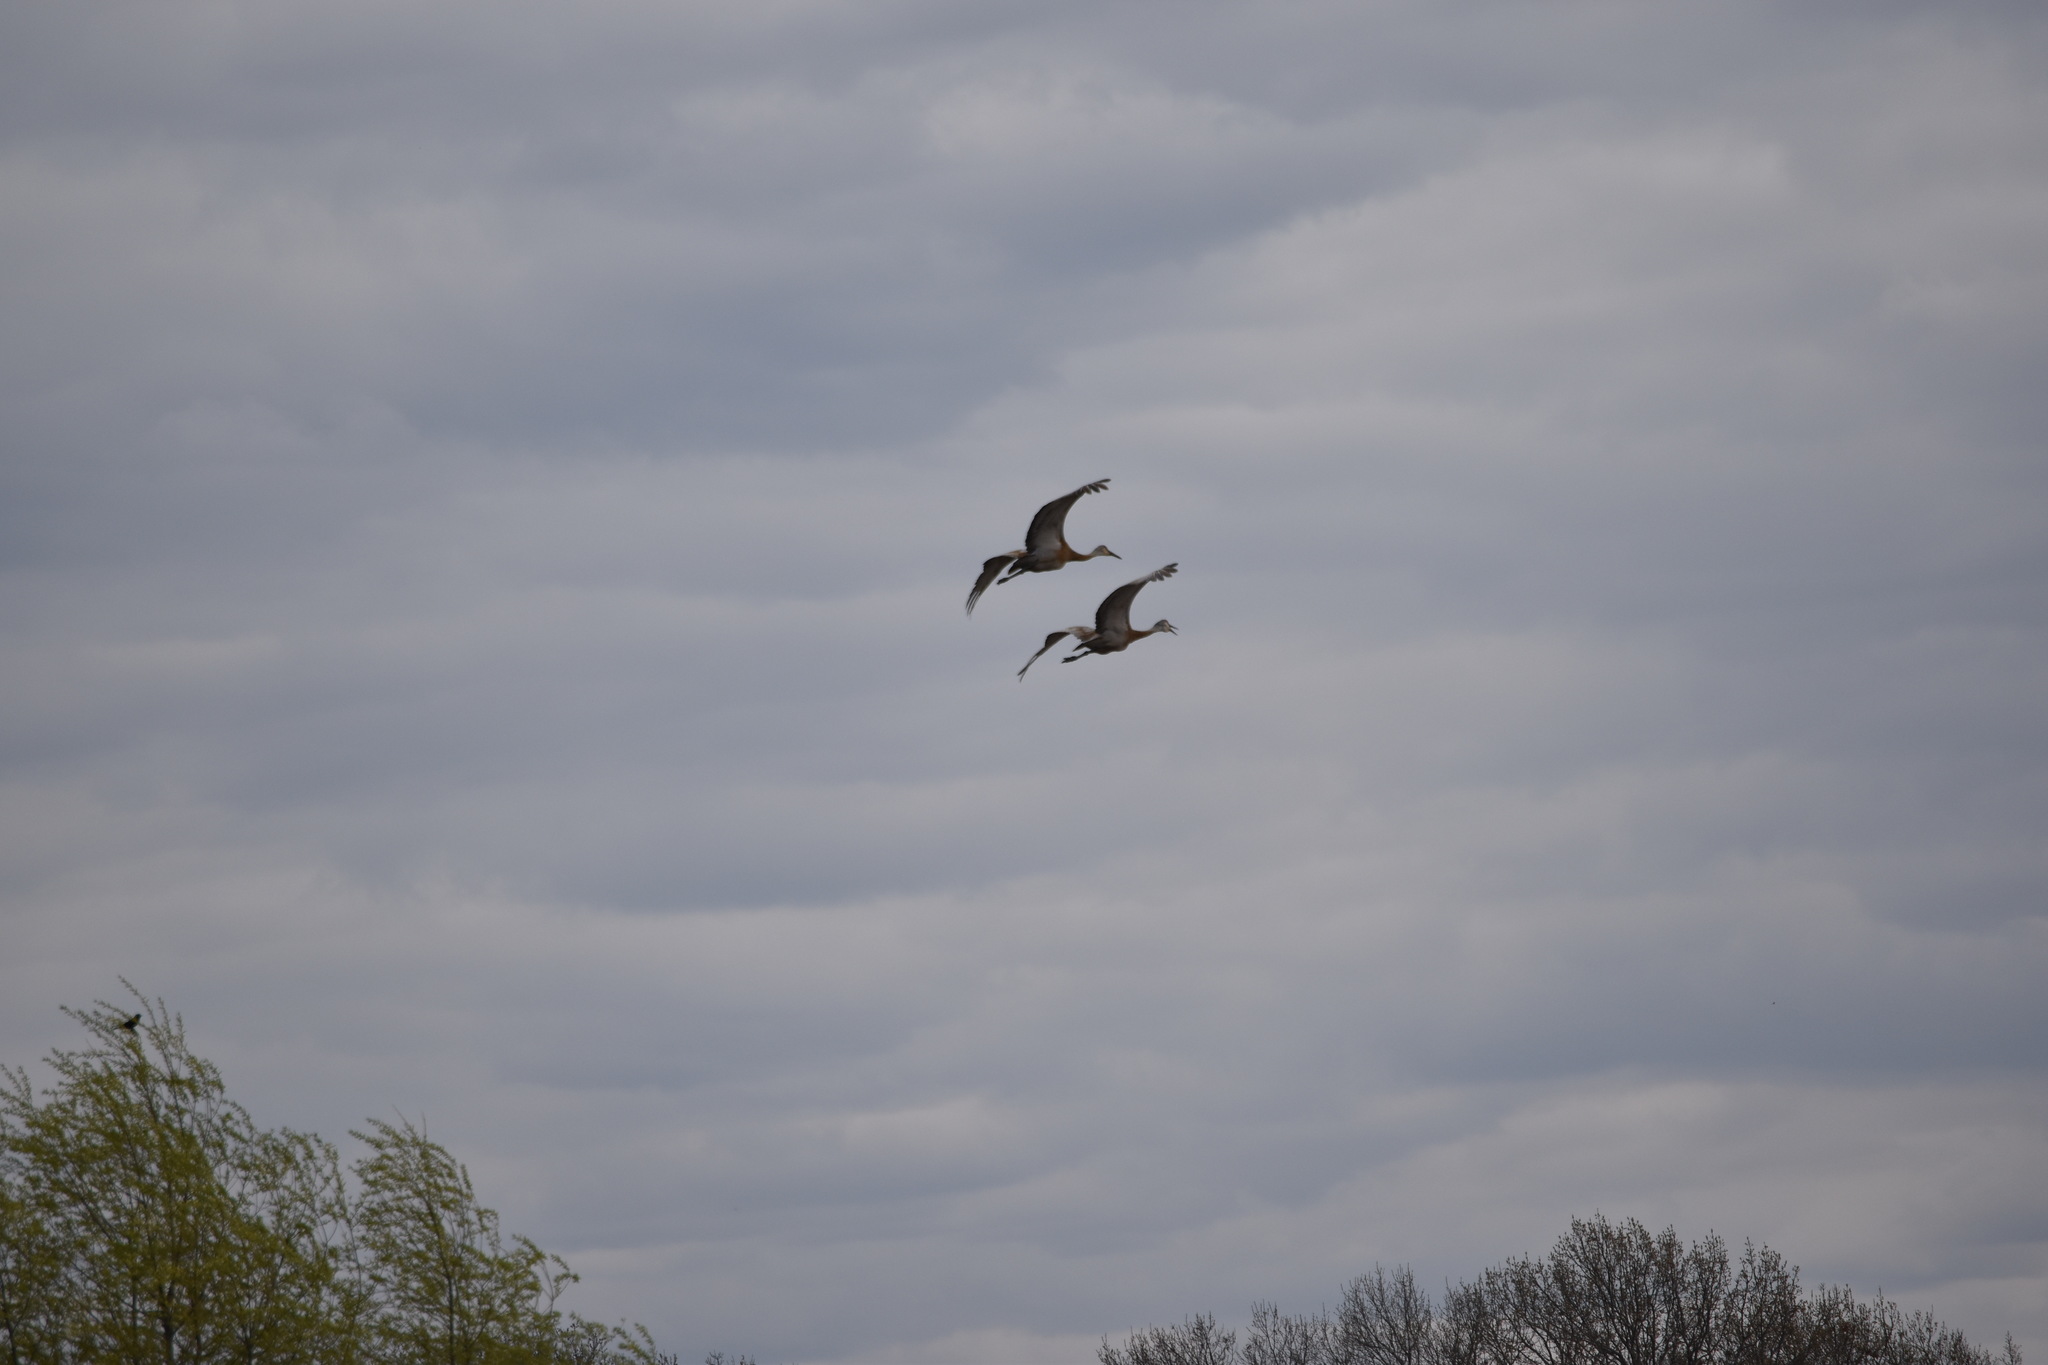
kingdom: Animalia
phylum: Chordata
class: Aves
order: Gruiformes
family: Gruidae
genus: Grus
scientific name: Grus canadensis
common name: Sandhill crane
